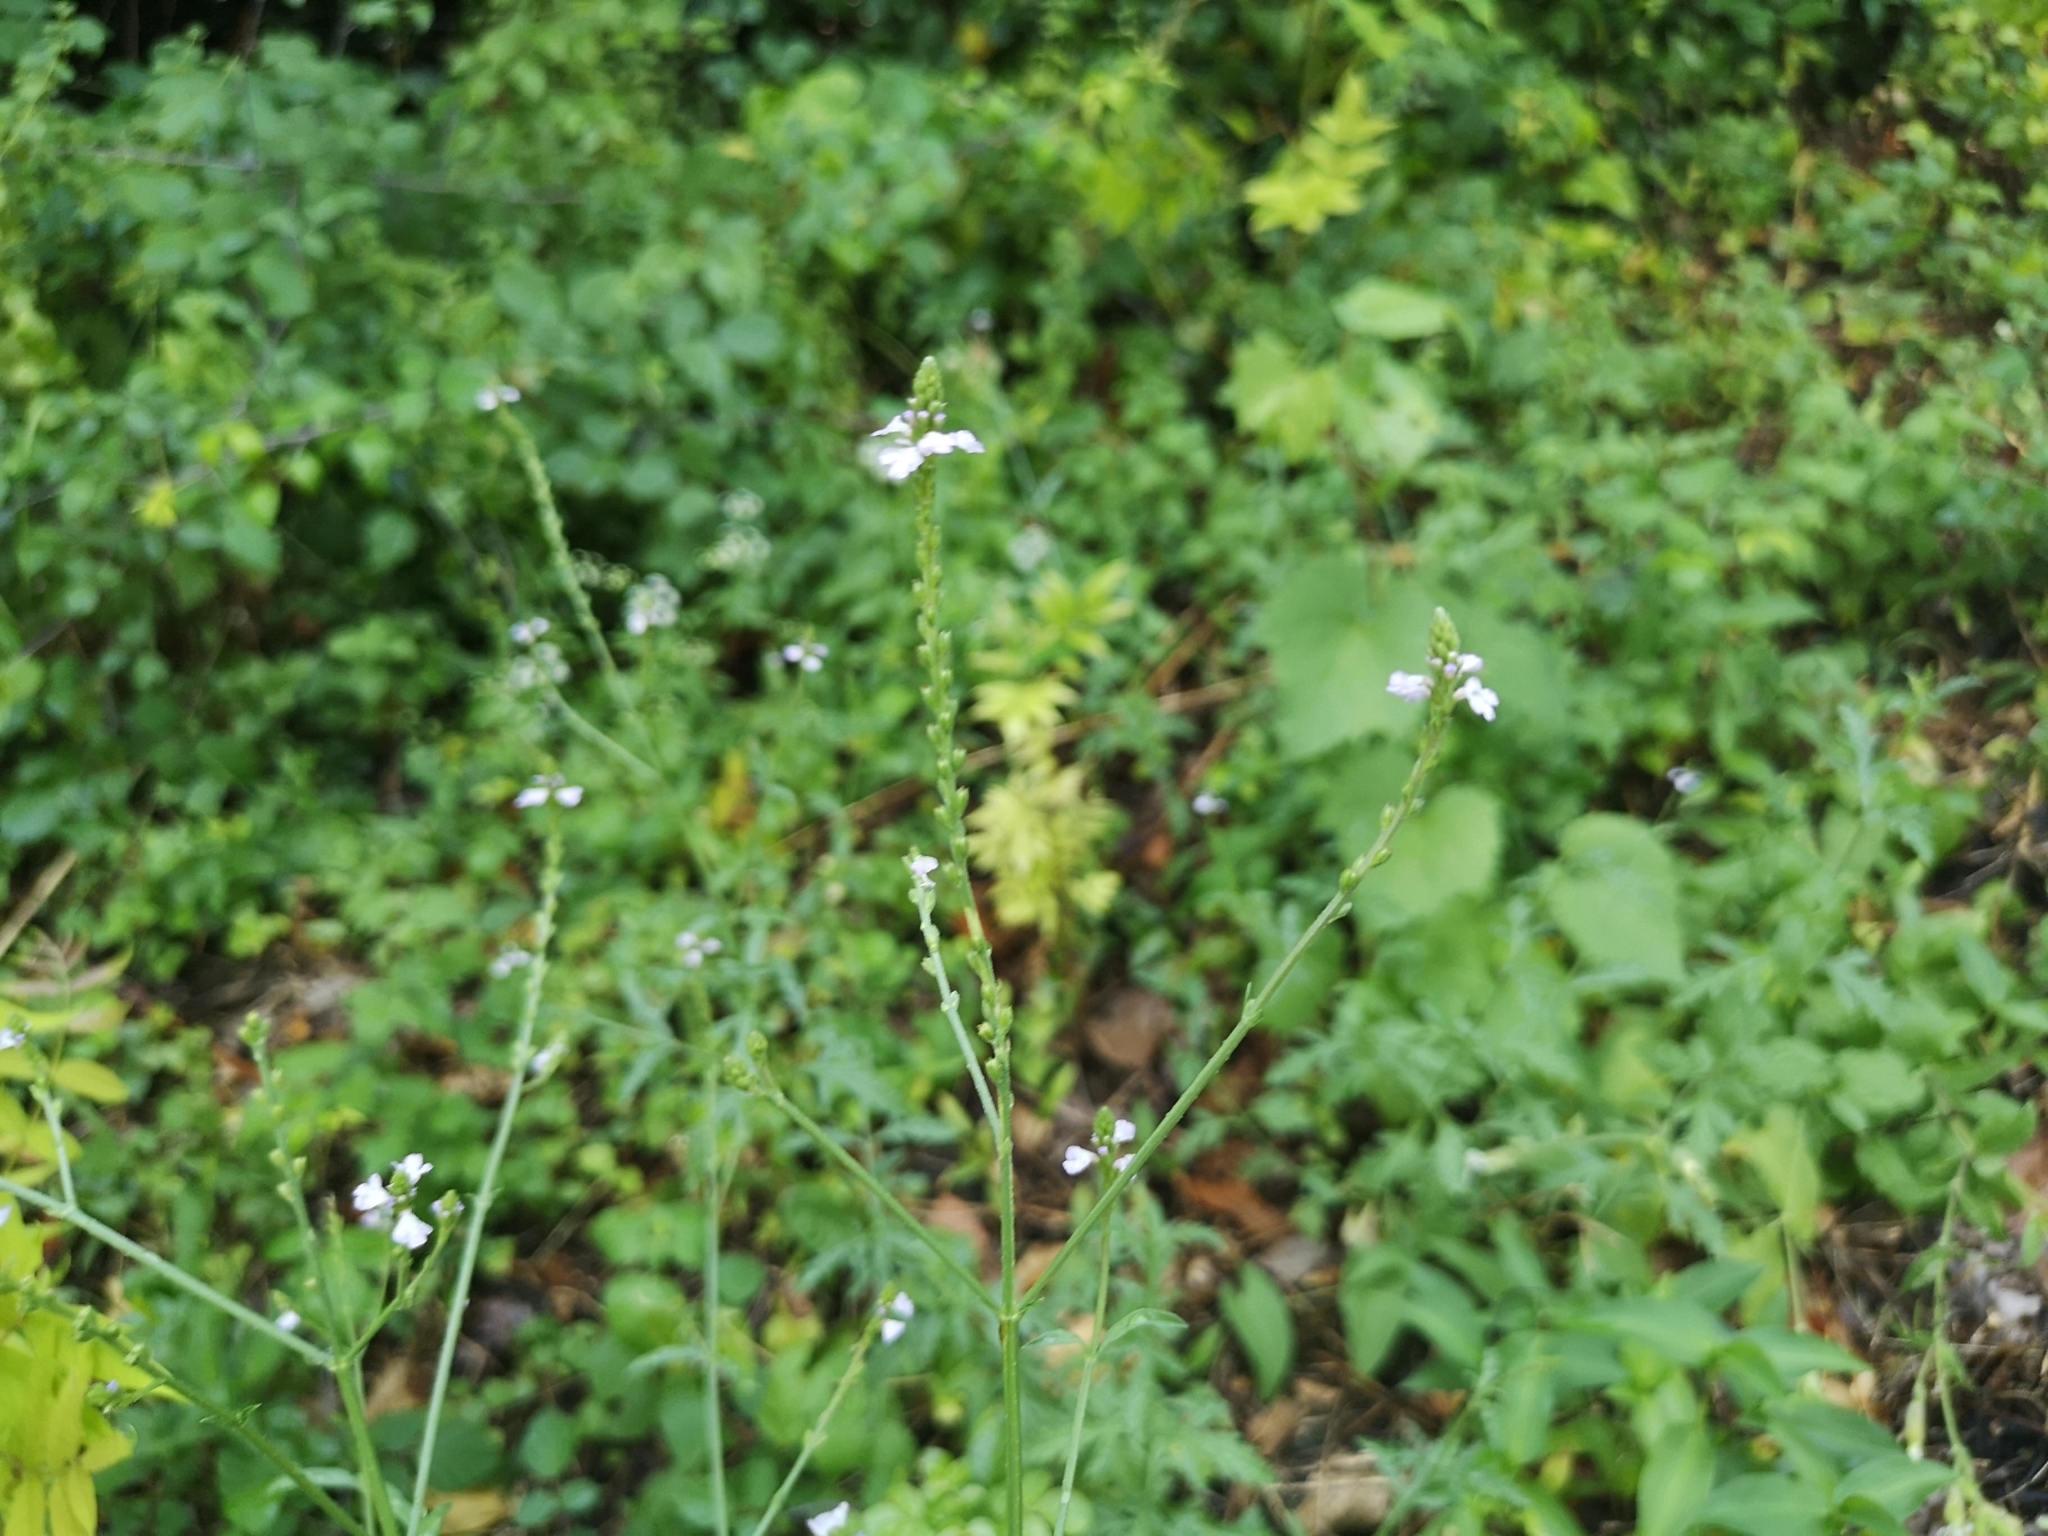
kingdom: Plantae
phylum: Tracheophyta
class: Magnoliopsida
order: Lamiales
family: Verbenaceae
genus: Verbena
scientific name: Verbena officinalis
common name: Vervain
